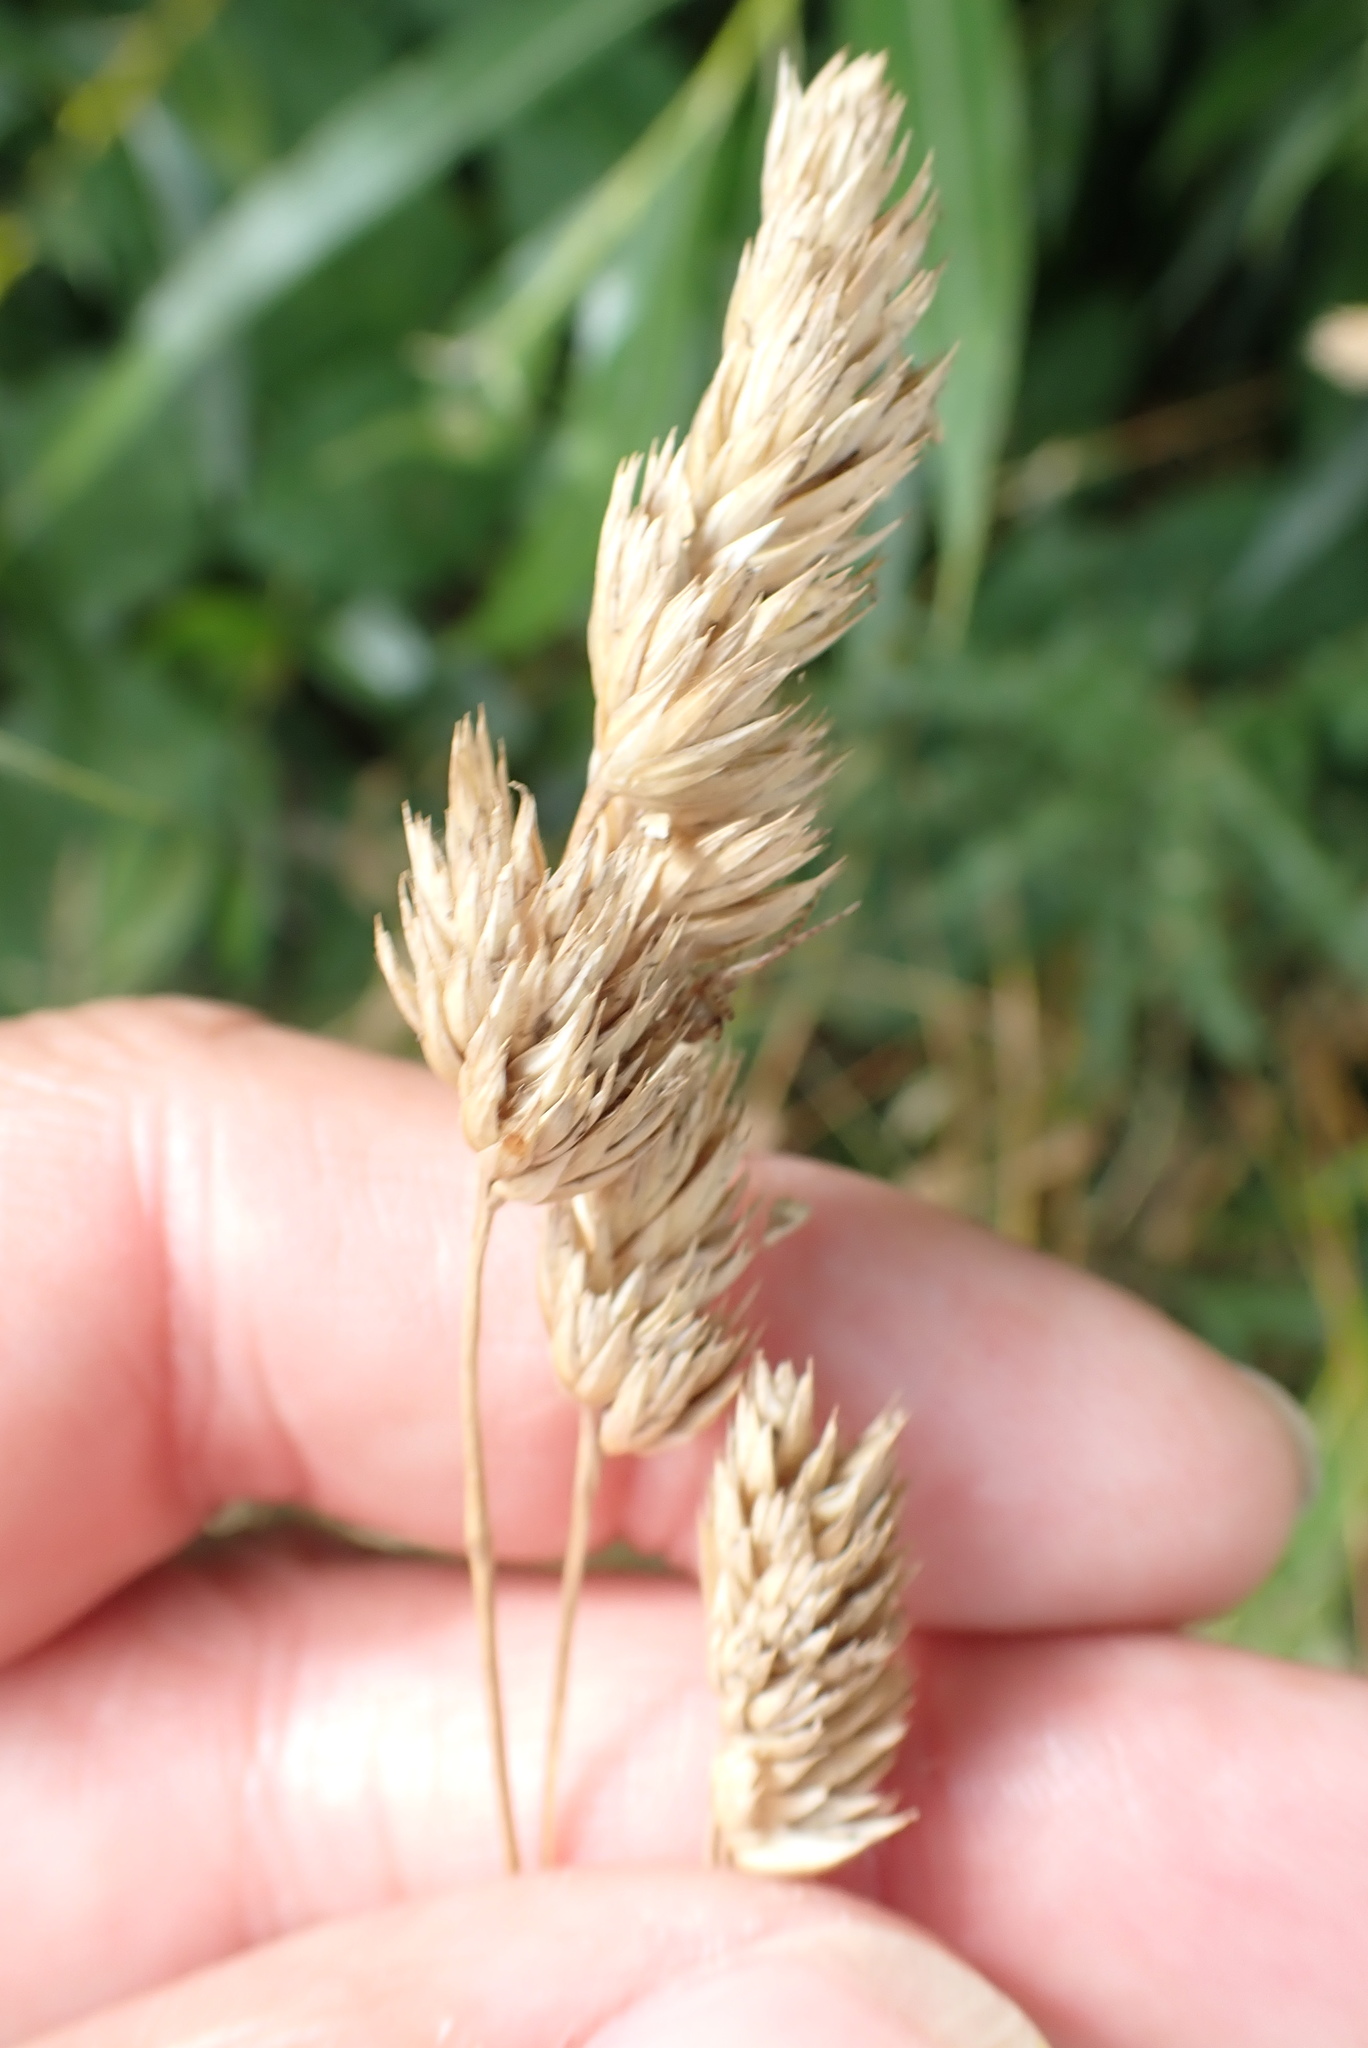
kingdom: Plantae
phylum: Tracheophyta
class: Liliopsida
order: Poales
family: Poaceae
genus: Dactylis
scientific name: Dactylis glomerata
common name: Orchardgrass
